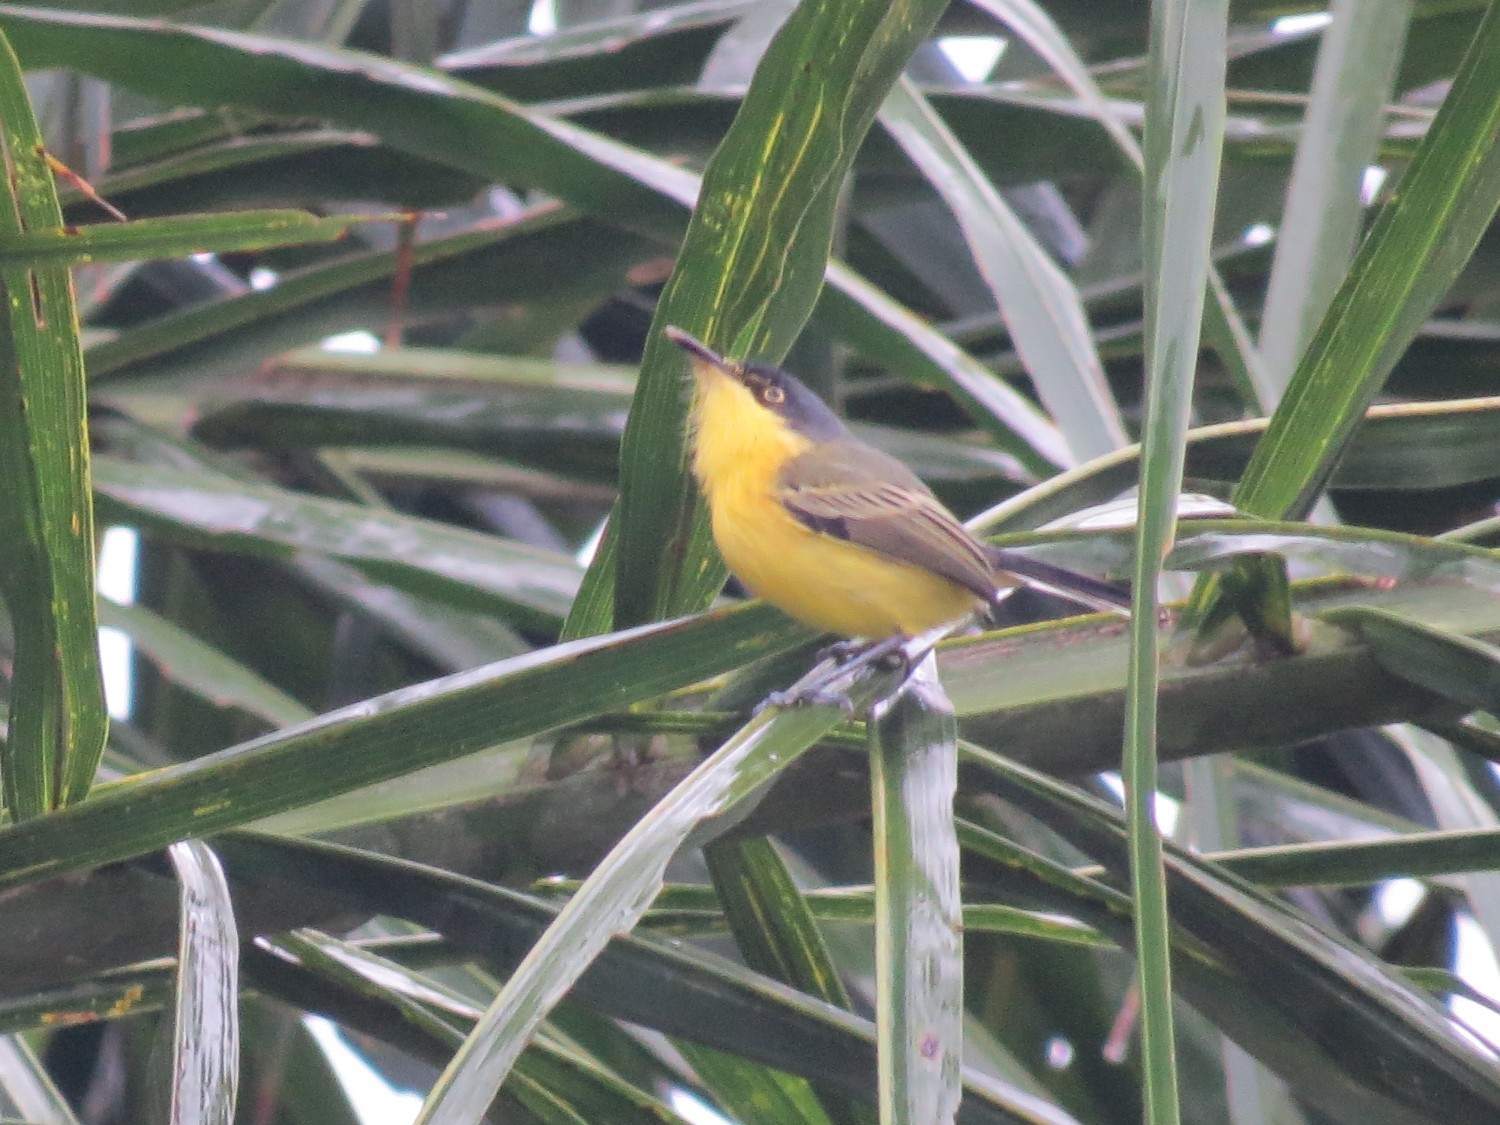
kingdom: Animalia
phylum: Chordata
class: Aves
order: Passeriformes
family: Tyrannidae
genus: Todirostrum
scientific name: Todirostrum cinereum
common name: Common tody-flycatcher
